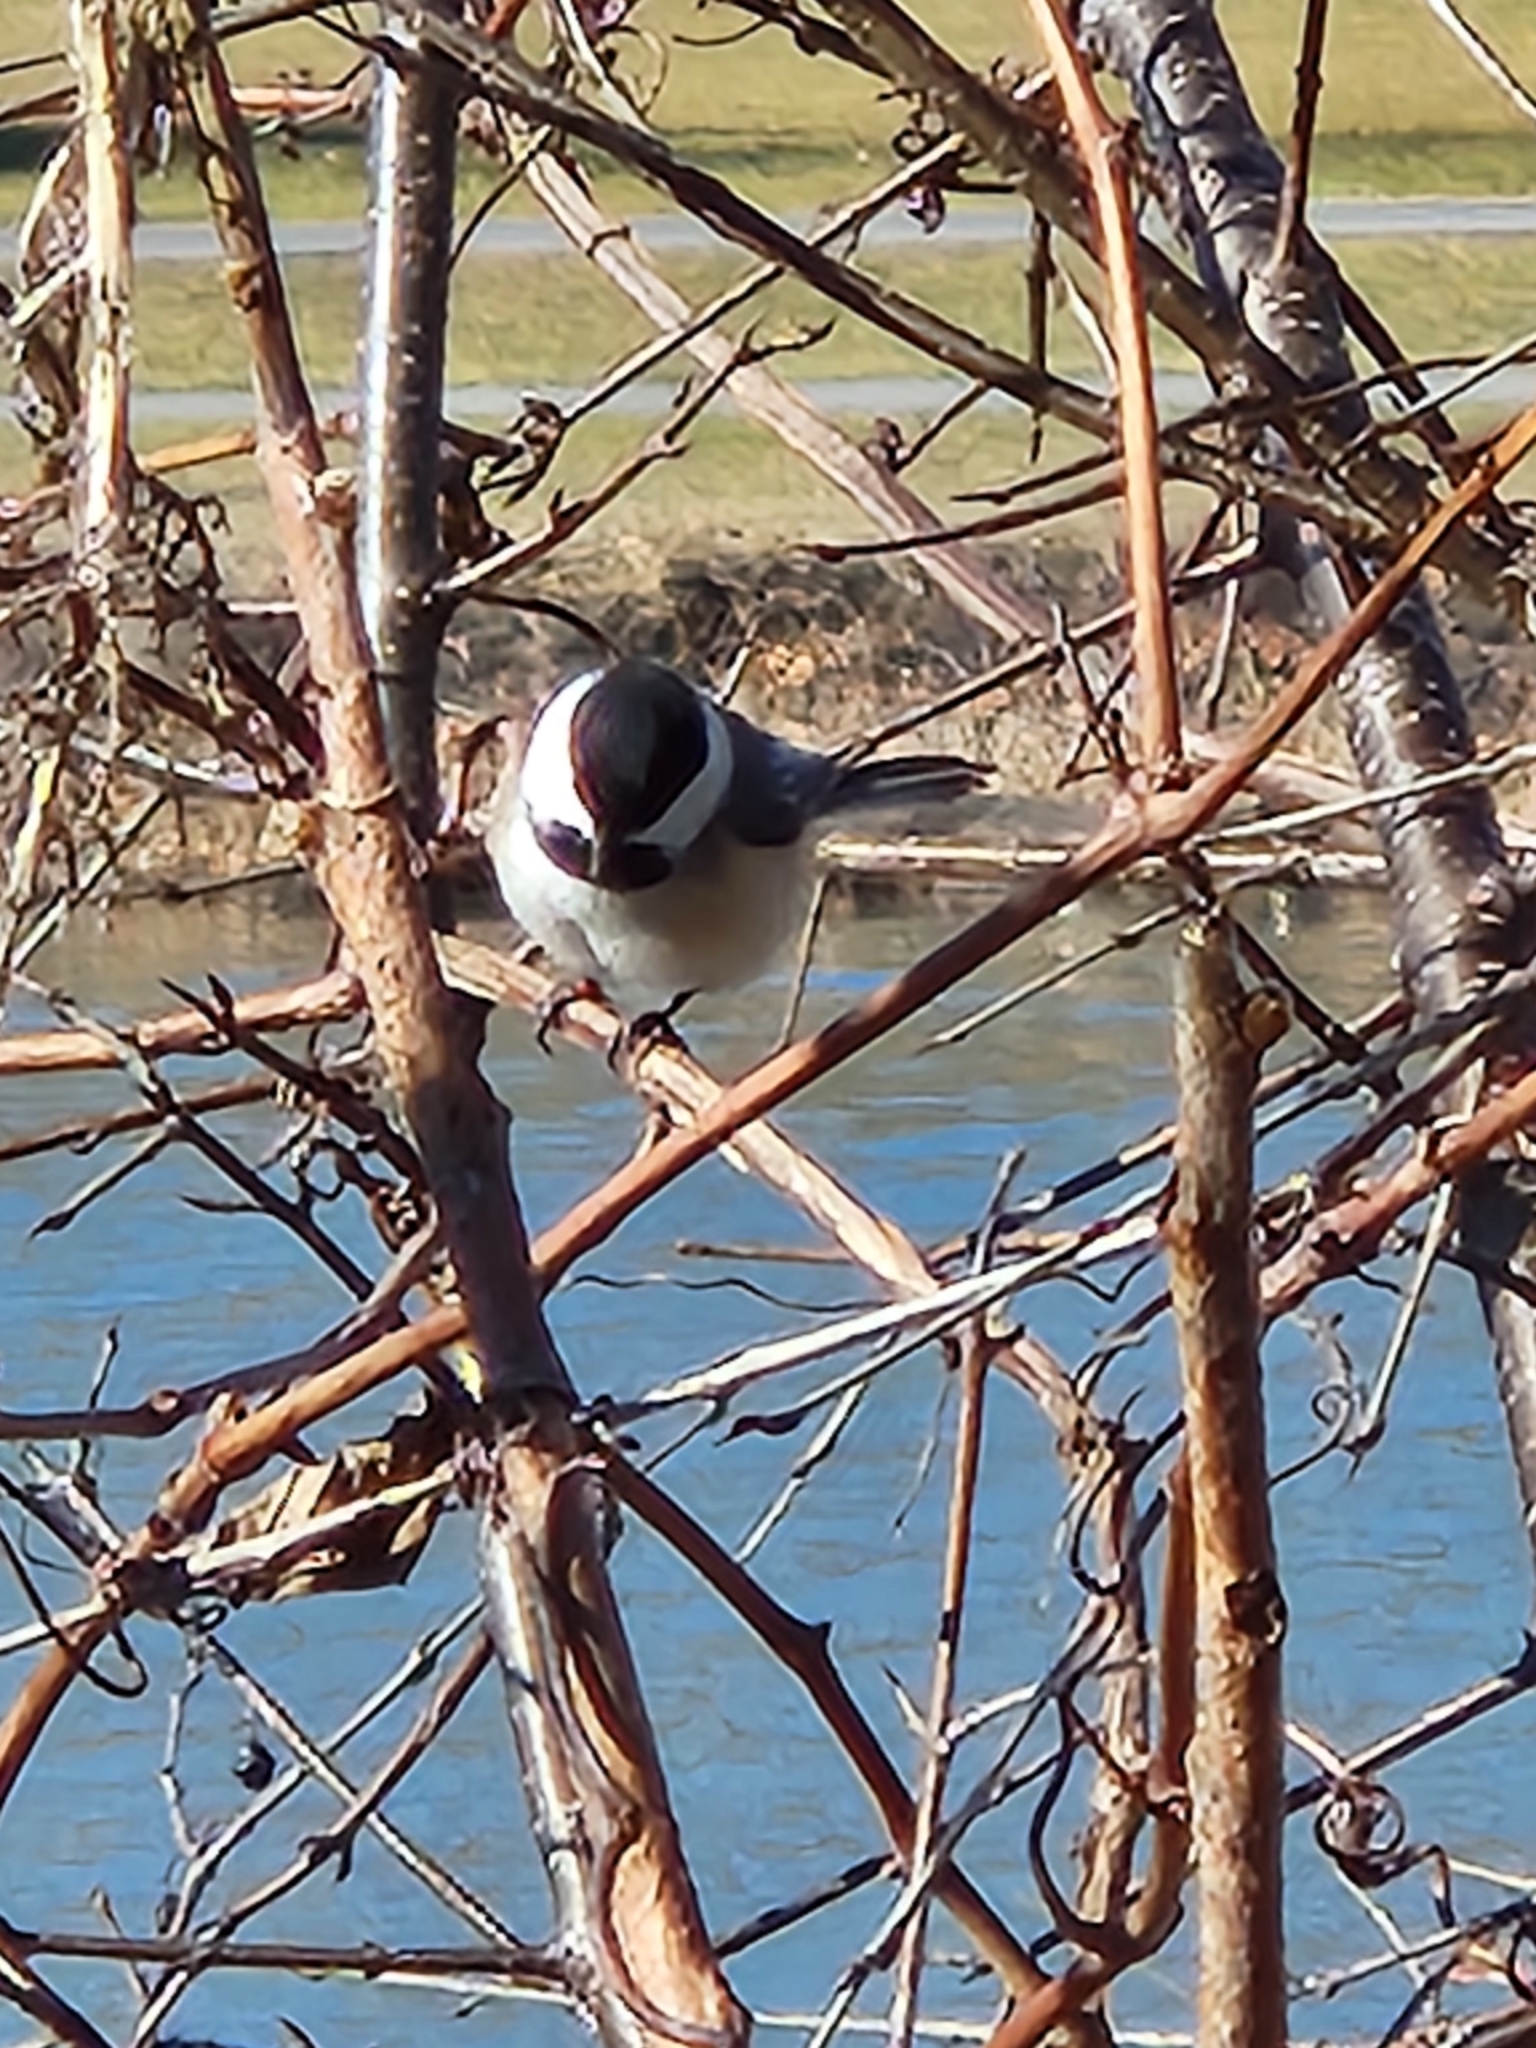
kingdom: Animalia
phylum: Chordata
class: Aves
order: Passeriformes
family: Paridae
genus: Poecile
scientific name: Poecile atricapillus
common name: Black-capped chickadee
